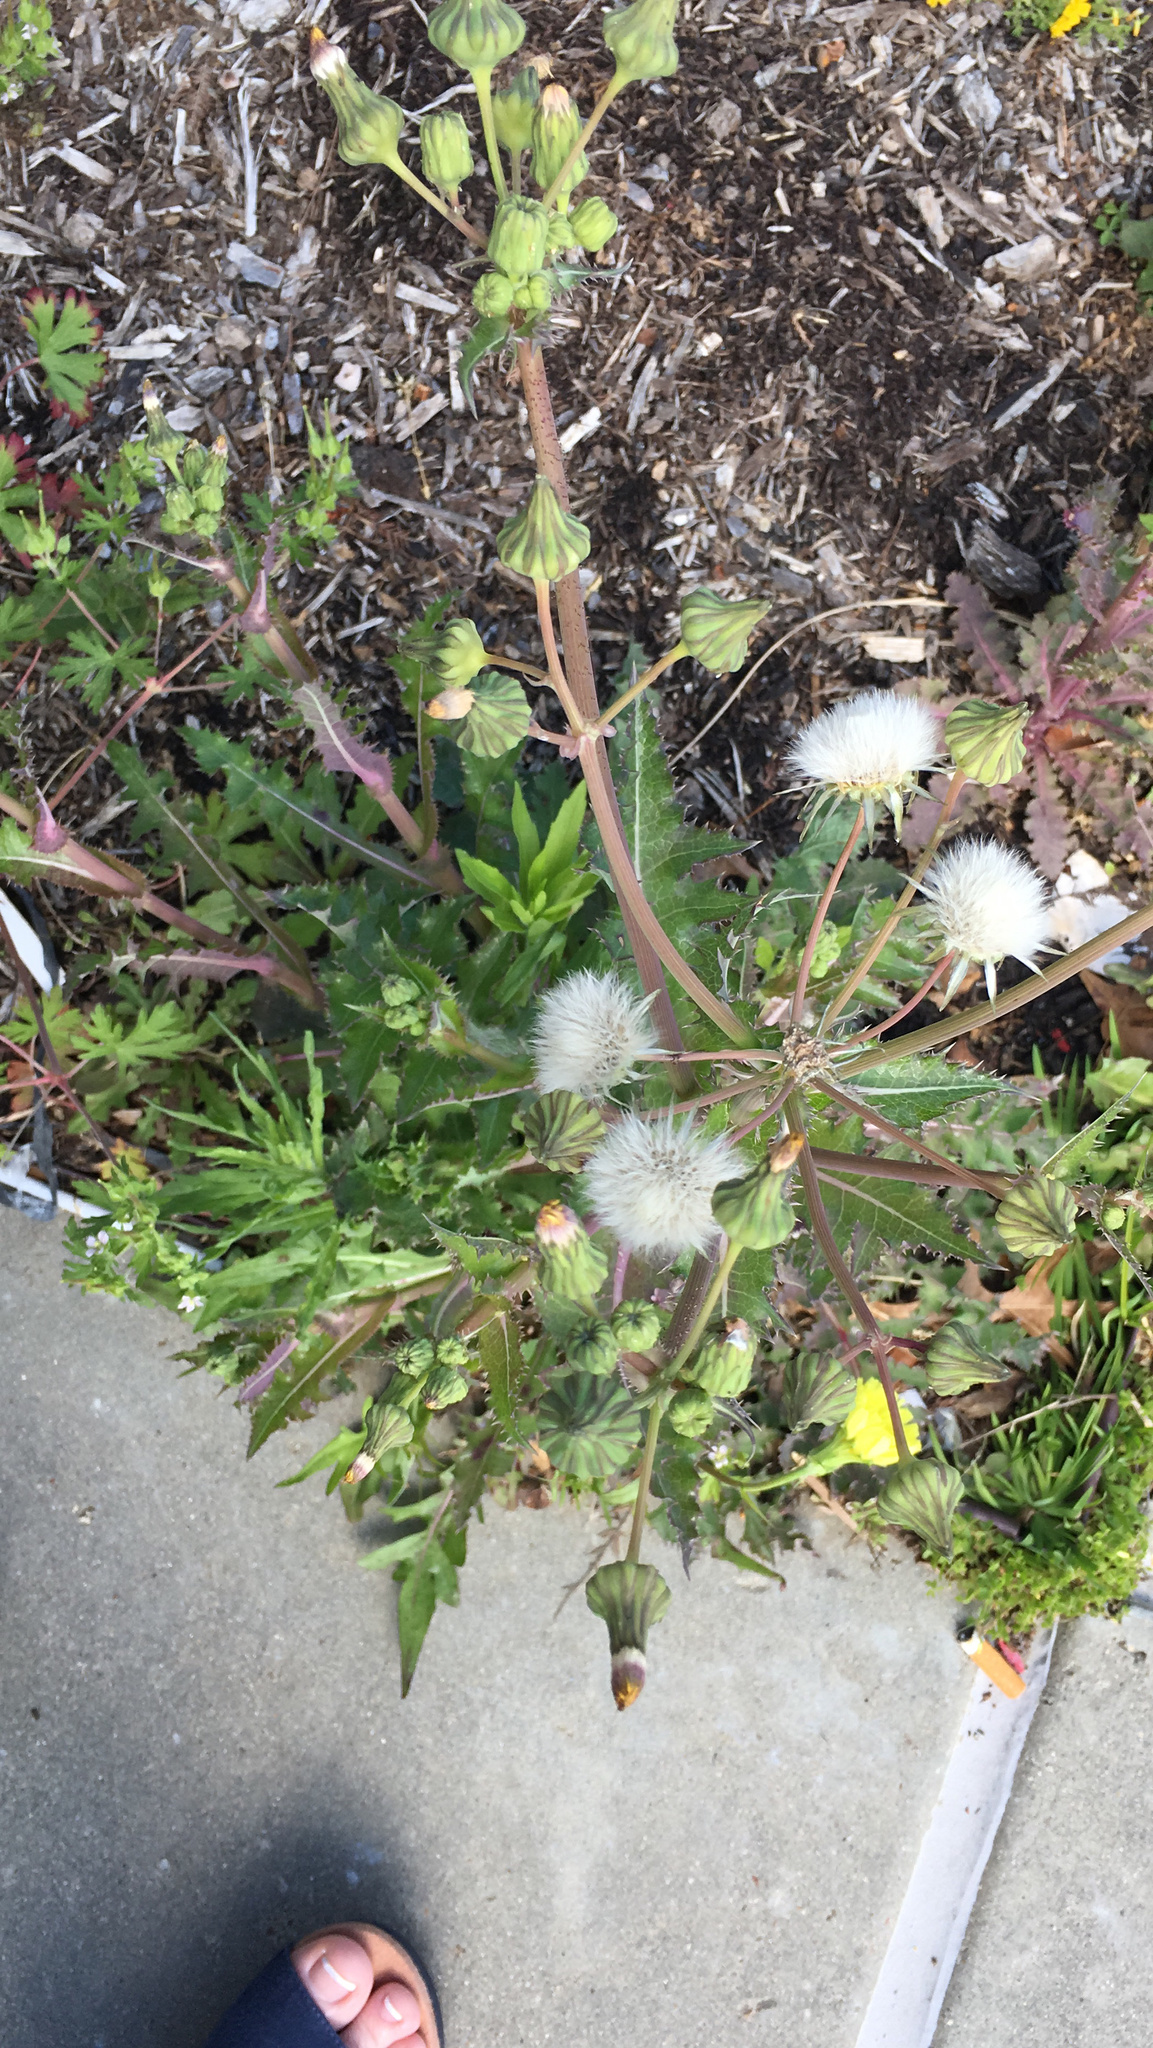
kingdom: Plantae
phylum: Tracheophyta
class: Magnoliopsida
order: Asterales
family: Asteraceae
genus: Sonchus
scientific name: Sonchus asper
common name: Prickly sow-thistle
